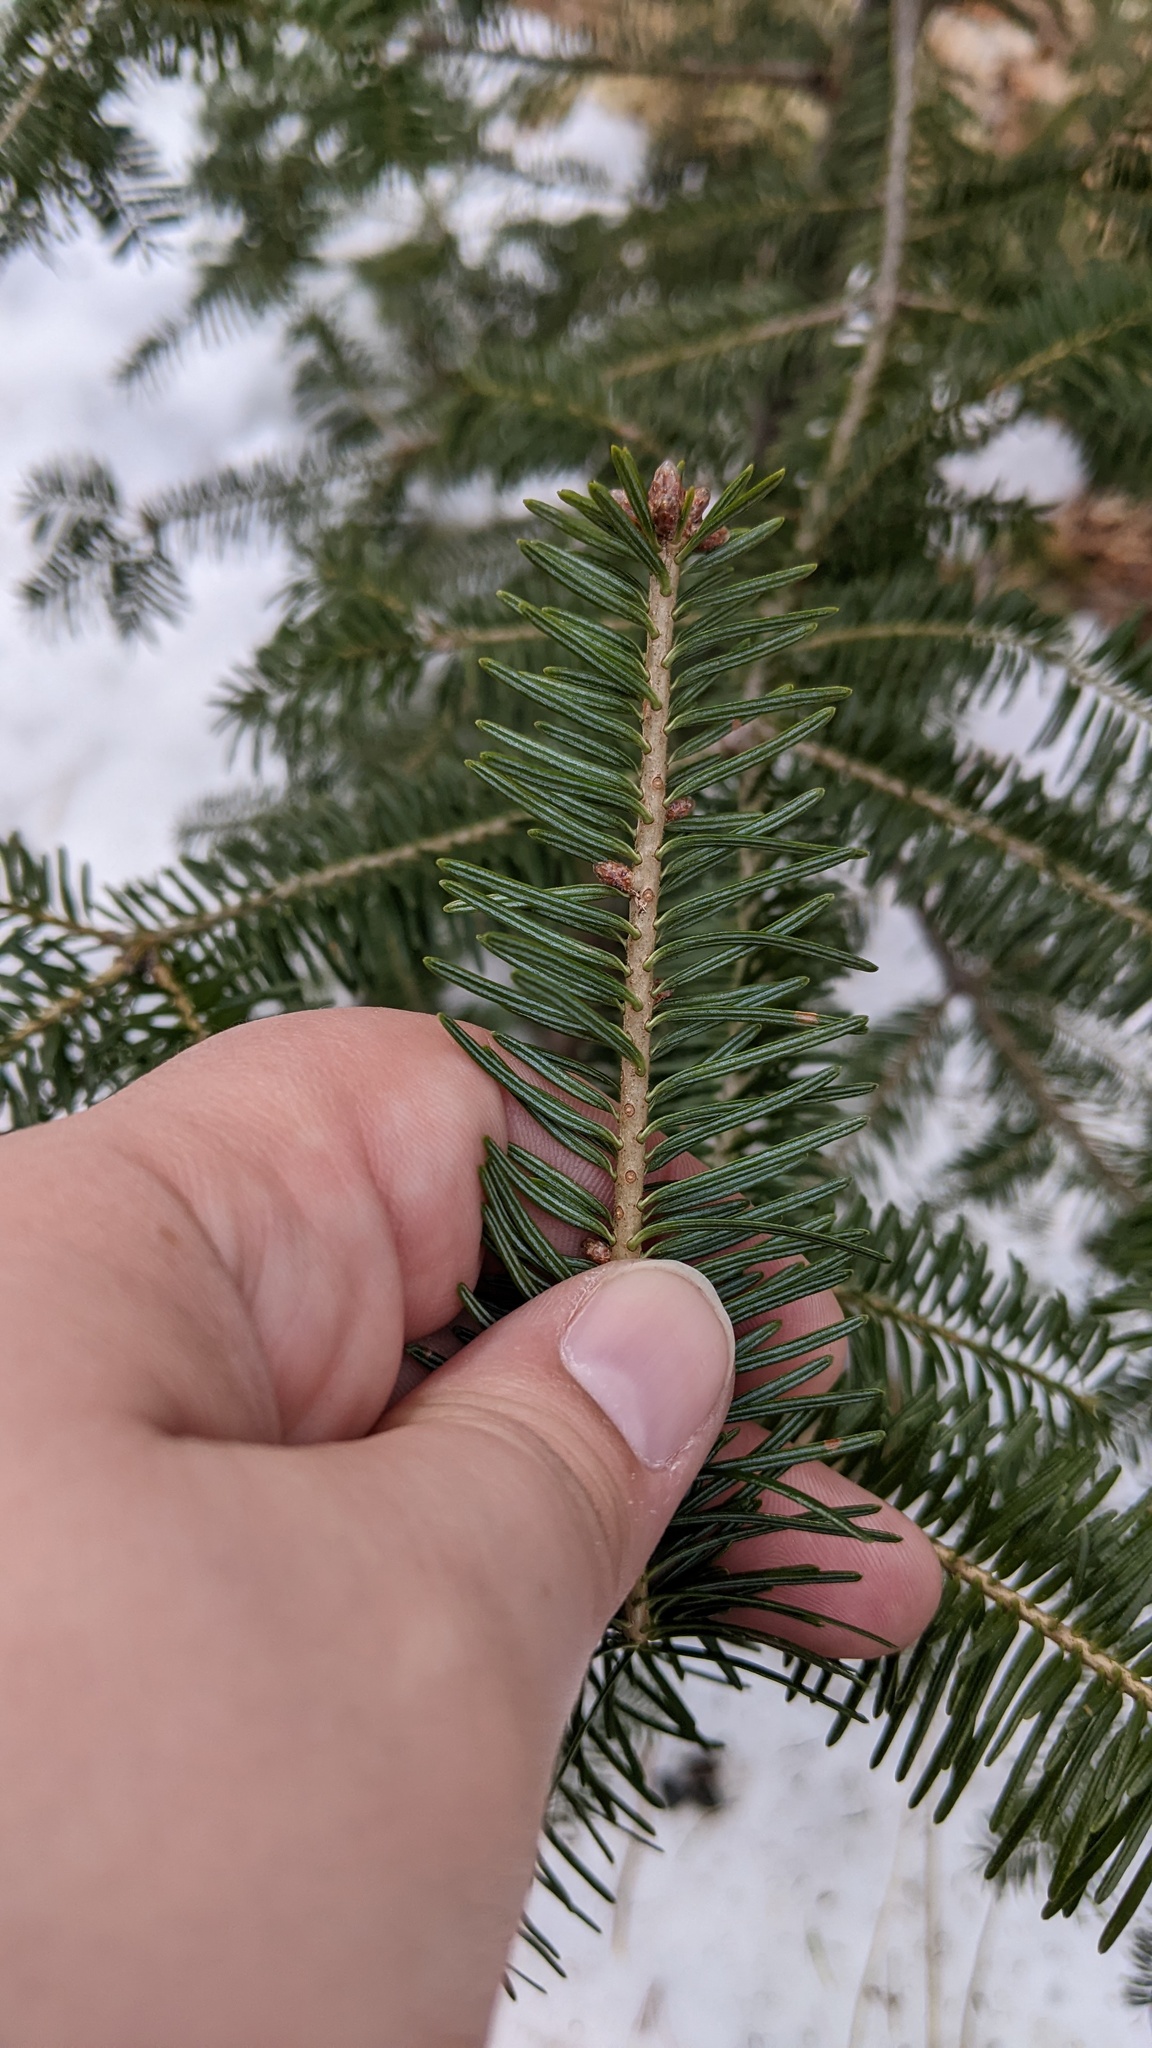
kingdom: Plantae
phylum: Tracheophyta
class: Pinopsida
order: Pinales
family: Pinaceae
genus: Abies
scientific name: Abies balsamea
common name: Balsam fir
